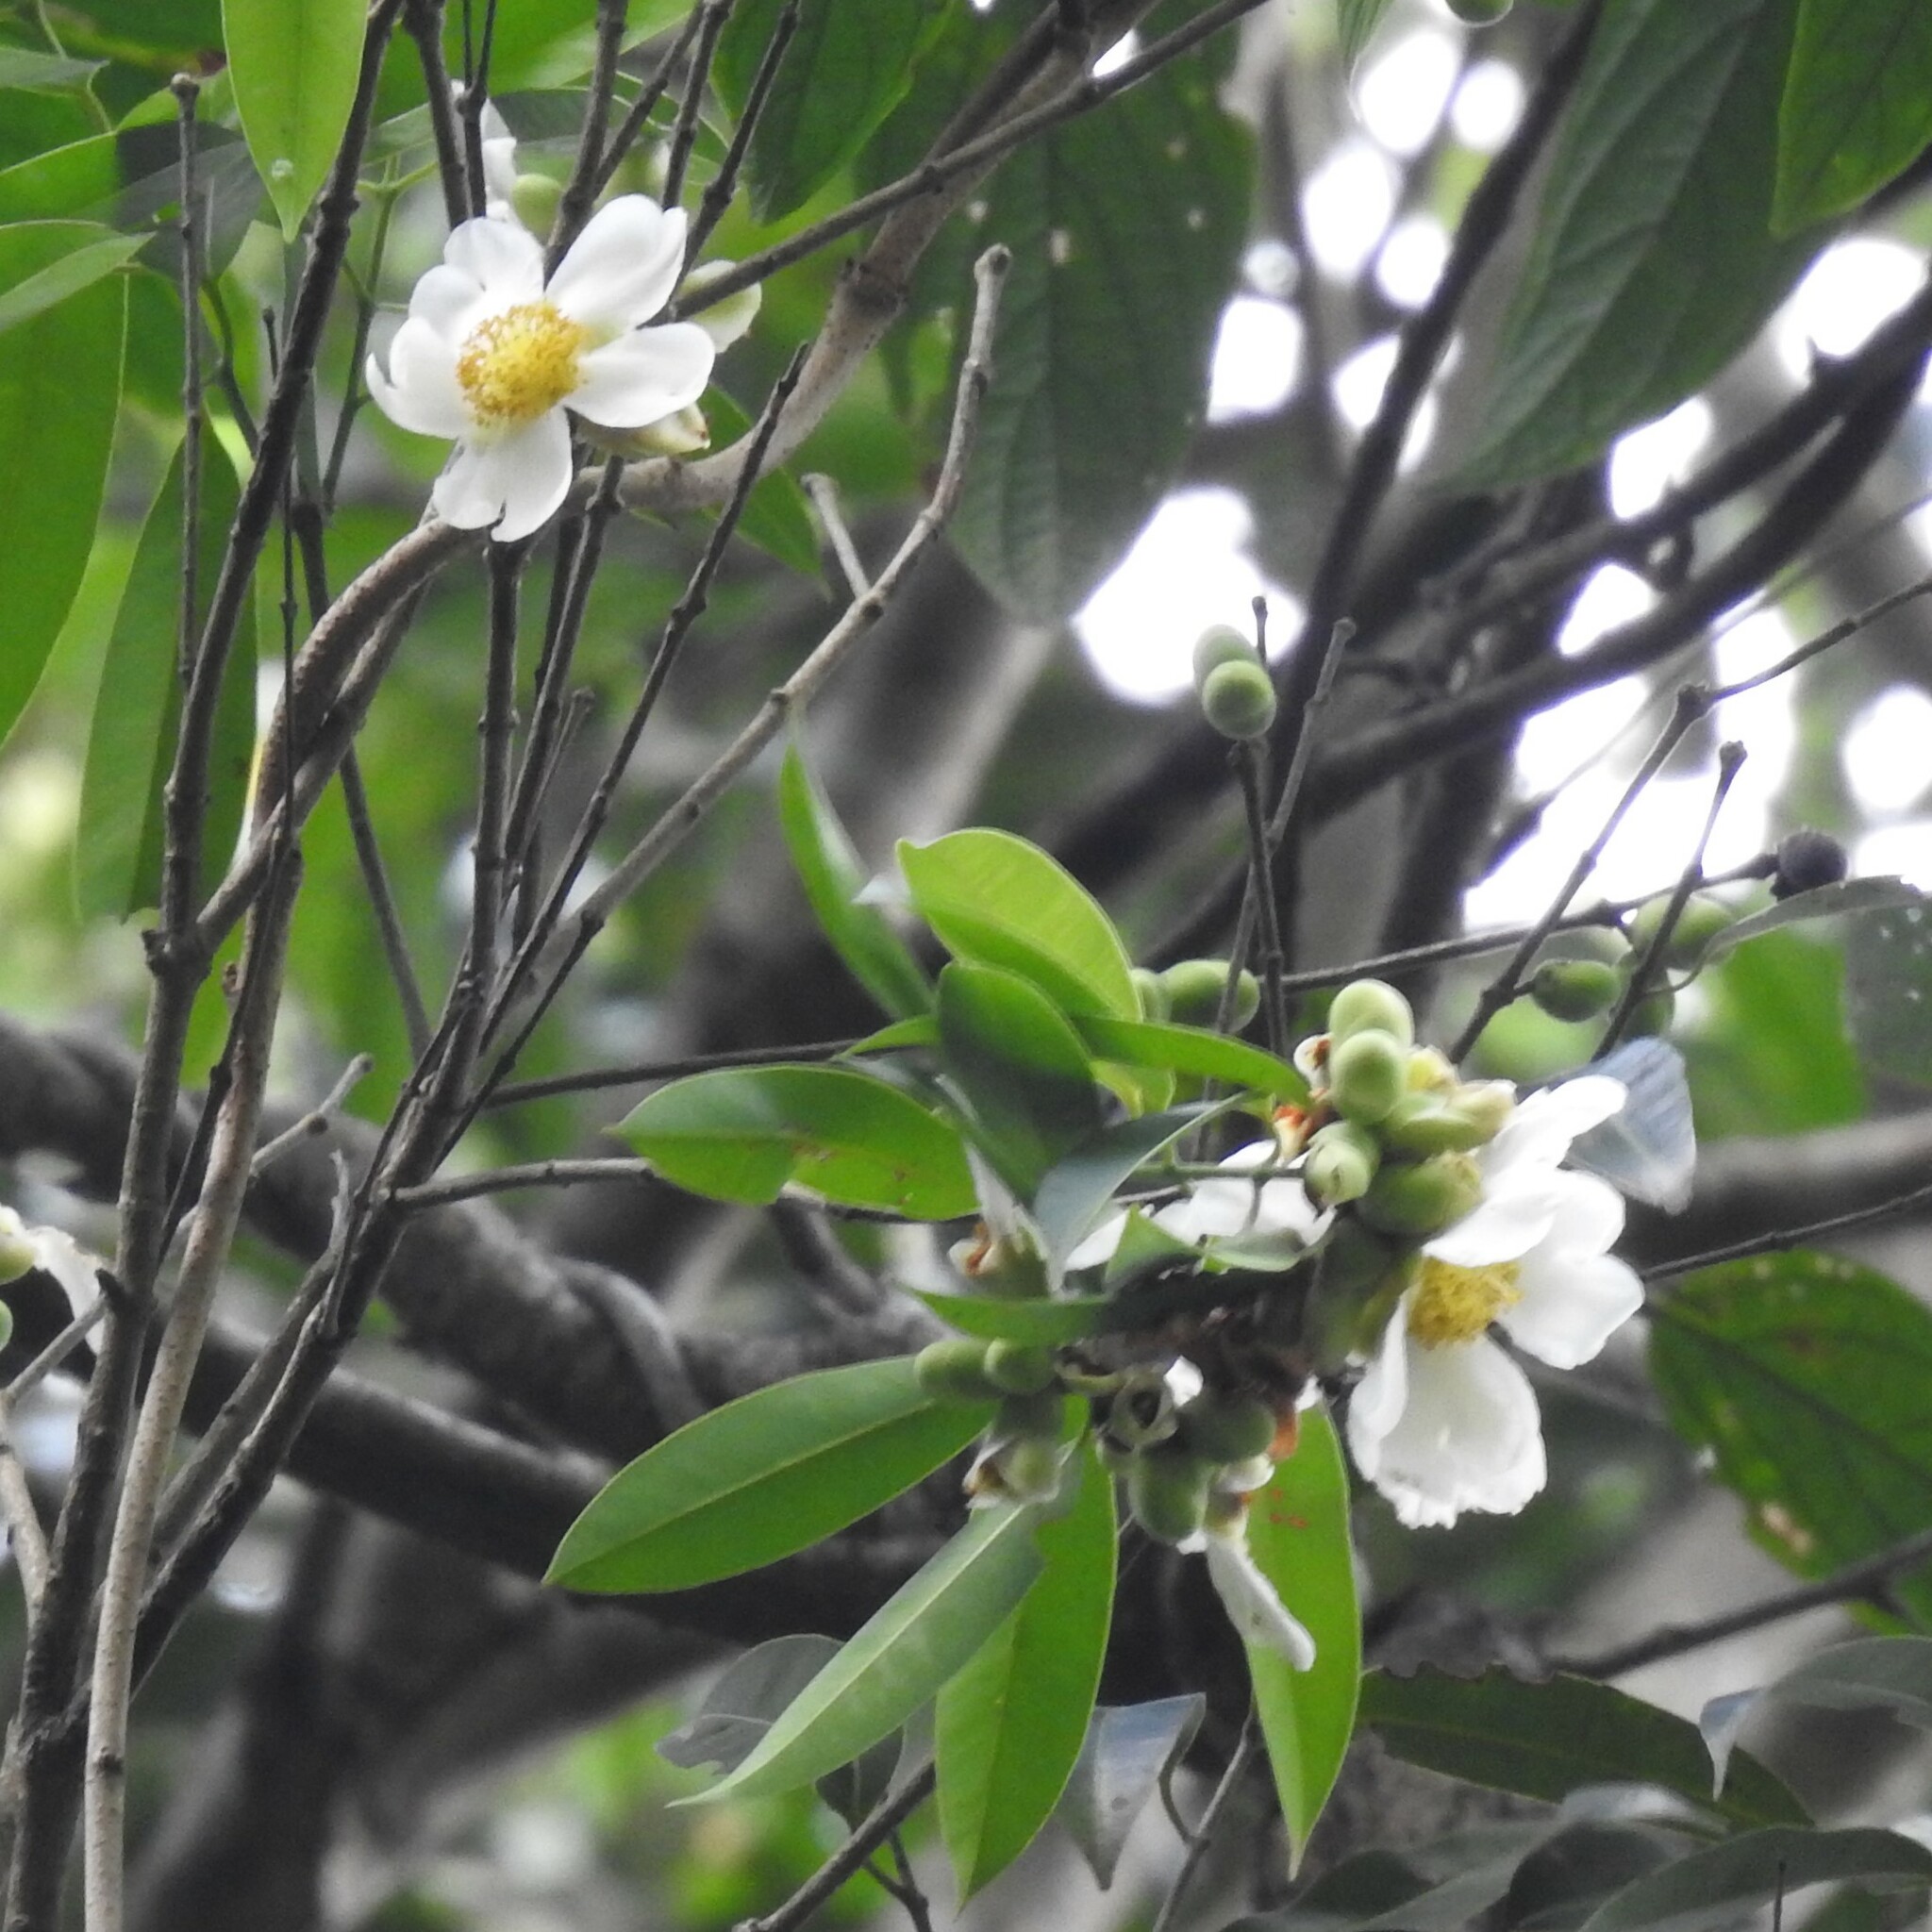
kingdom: Plantae
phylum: Tracheophyta
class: Magnoliopsida
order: Ericales
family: Theaceae
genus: Polyspora
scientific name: Polyspora obtusa
